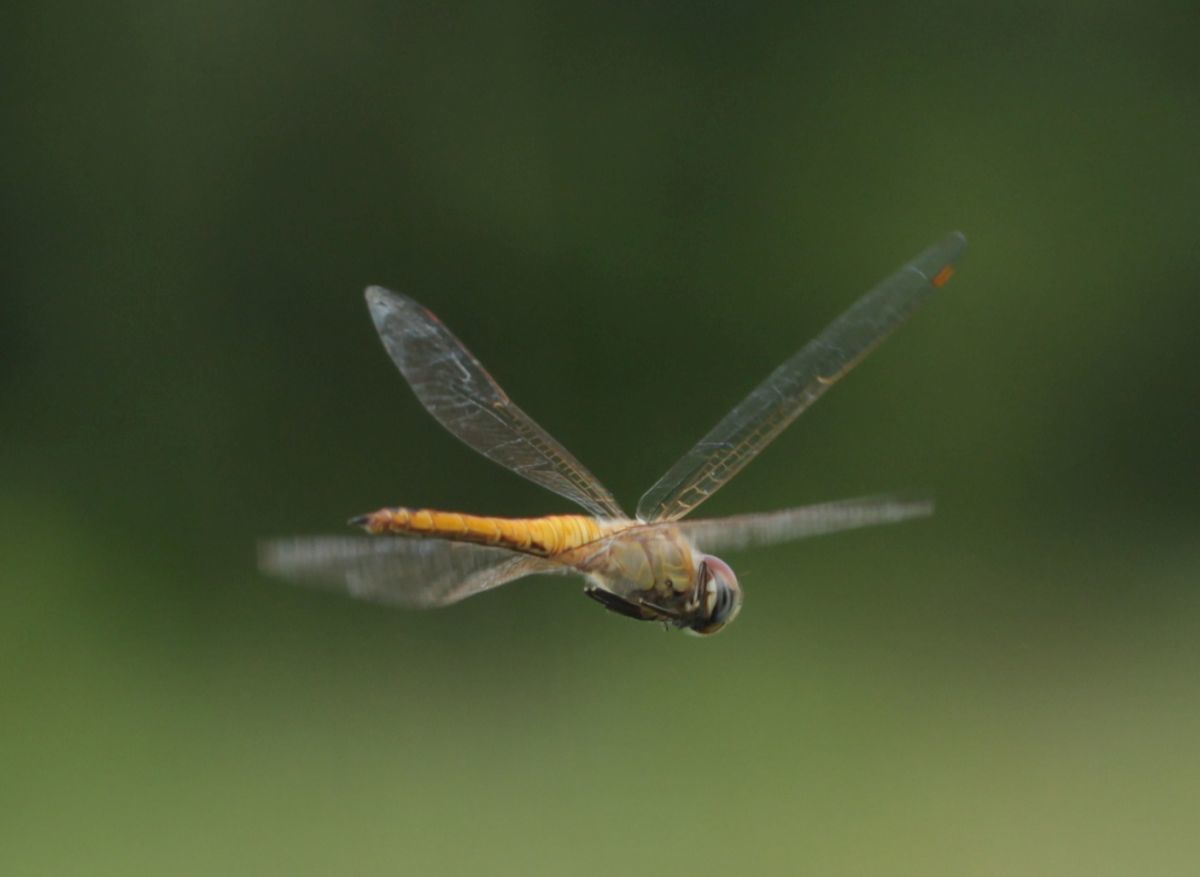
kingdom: Animalia
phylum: Arthropoda
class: Insecta
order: Odonata
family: Libellulidae
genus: Pantala
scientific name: Pantala flavescens
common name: Wandering glider
